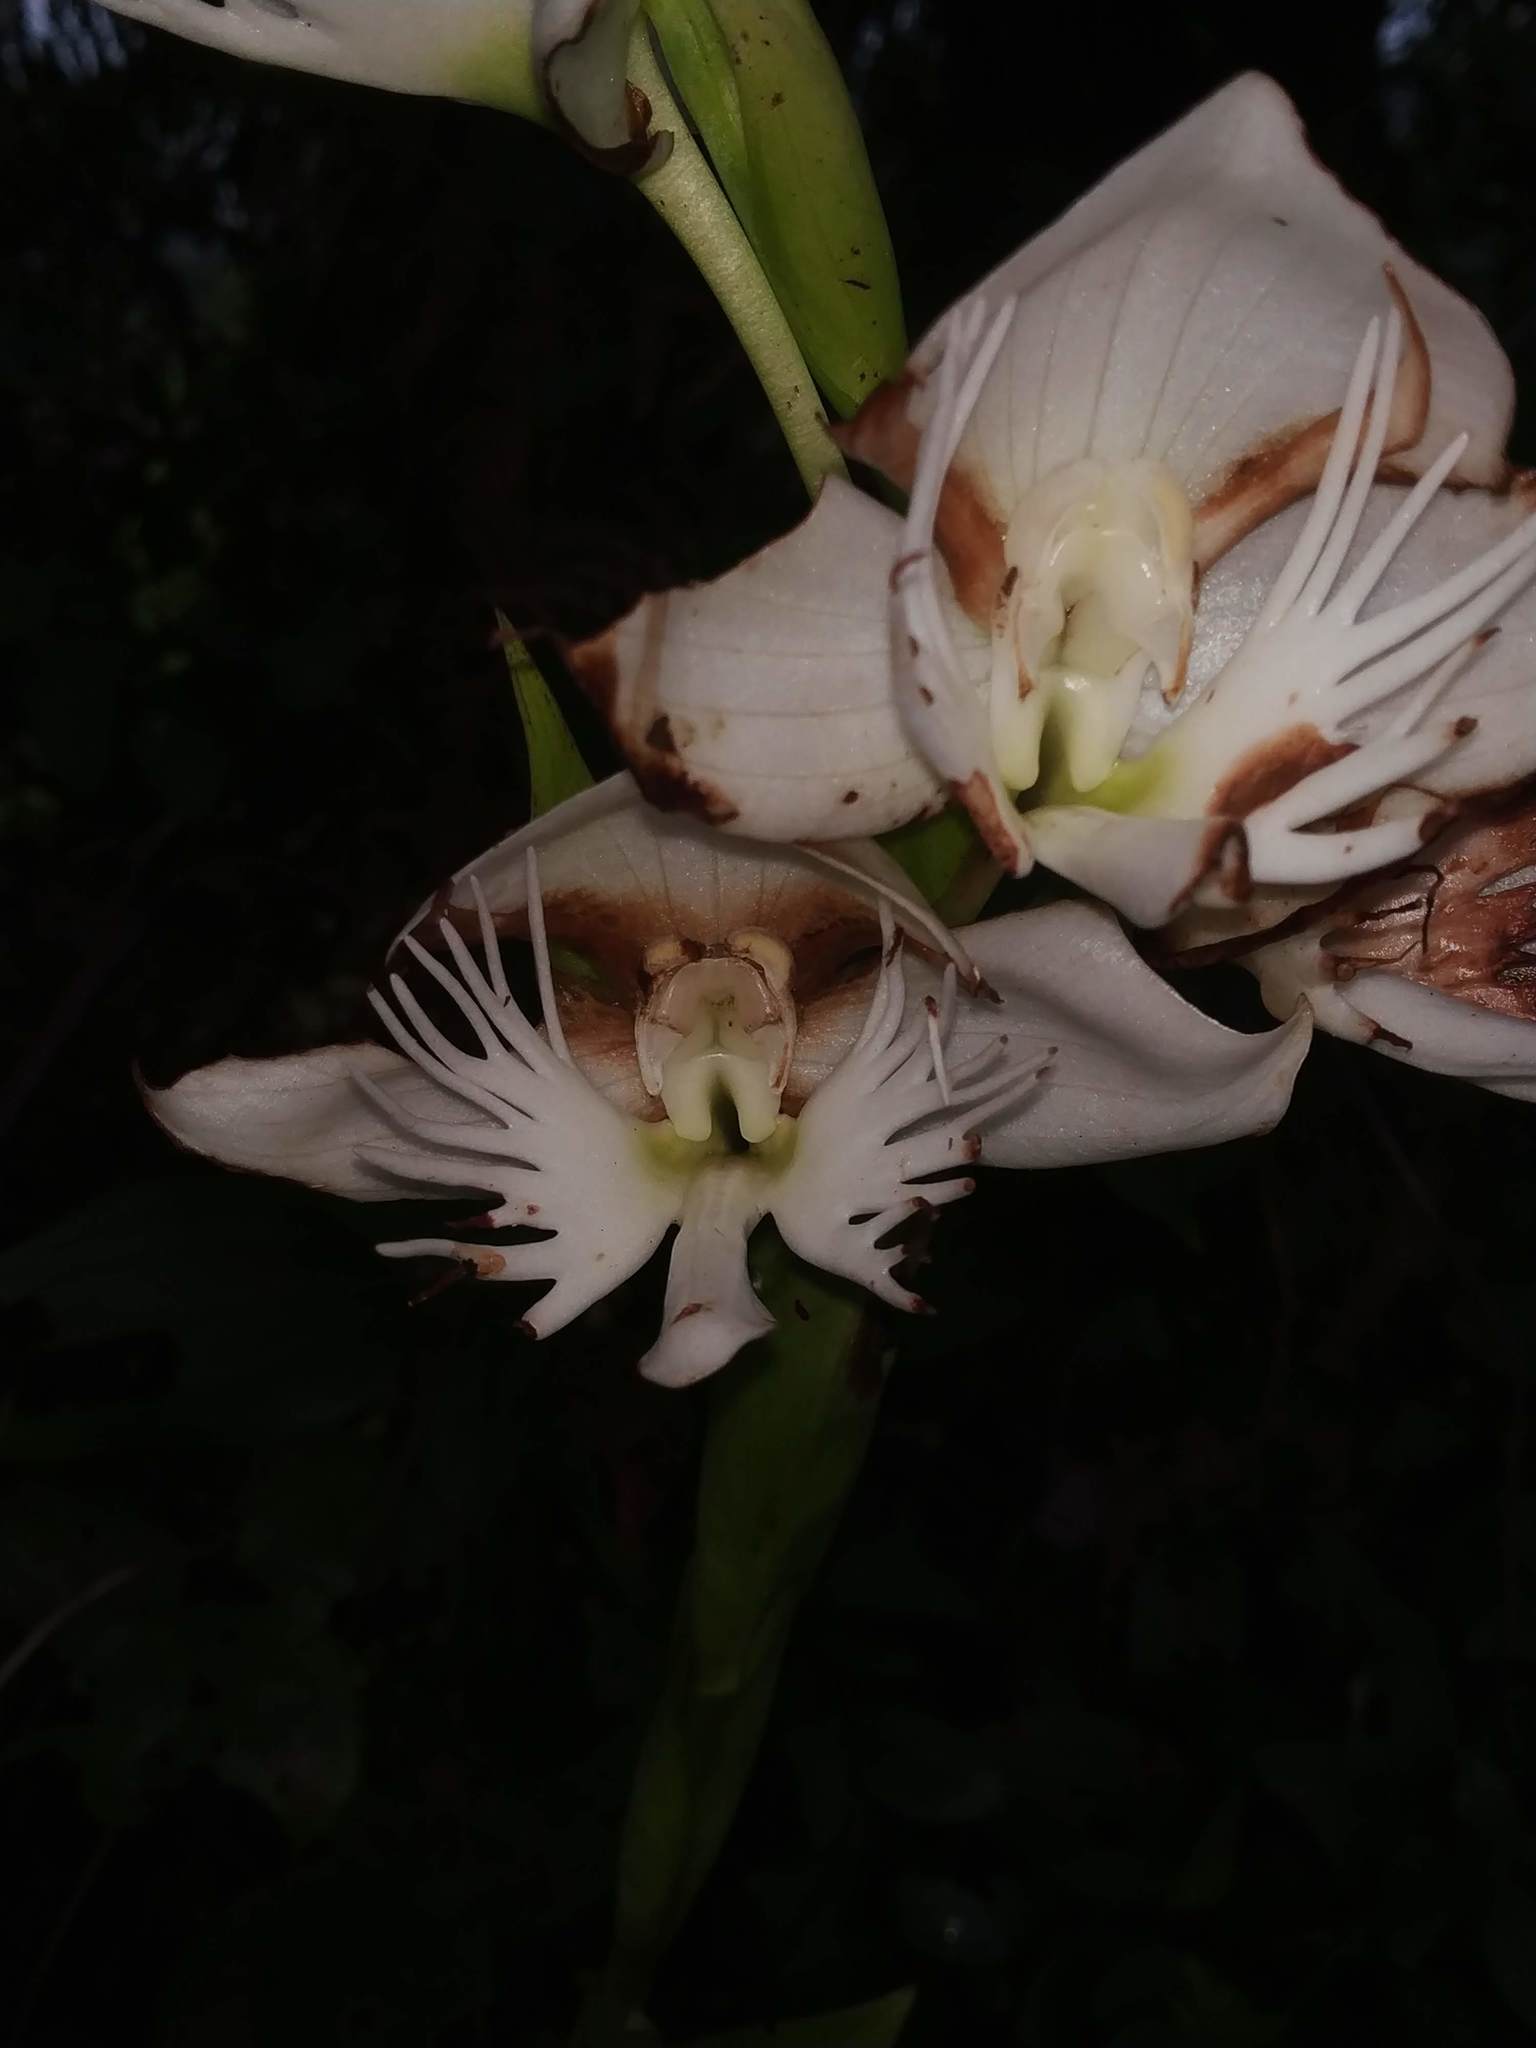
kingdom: Plantae
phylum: Tracheophyta
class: Liliopsida
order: Asparagales
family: Orchidaceae
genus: Pecteilis
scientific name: Pecteilis gigantea
